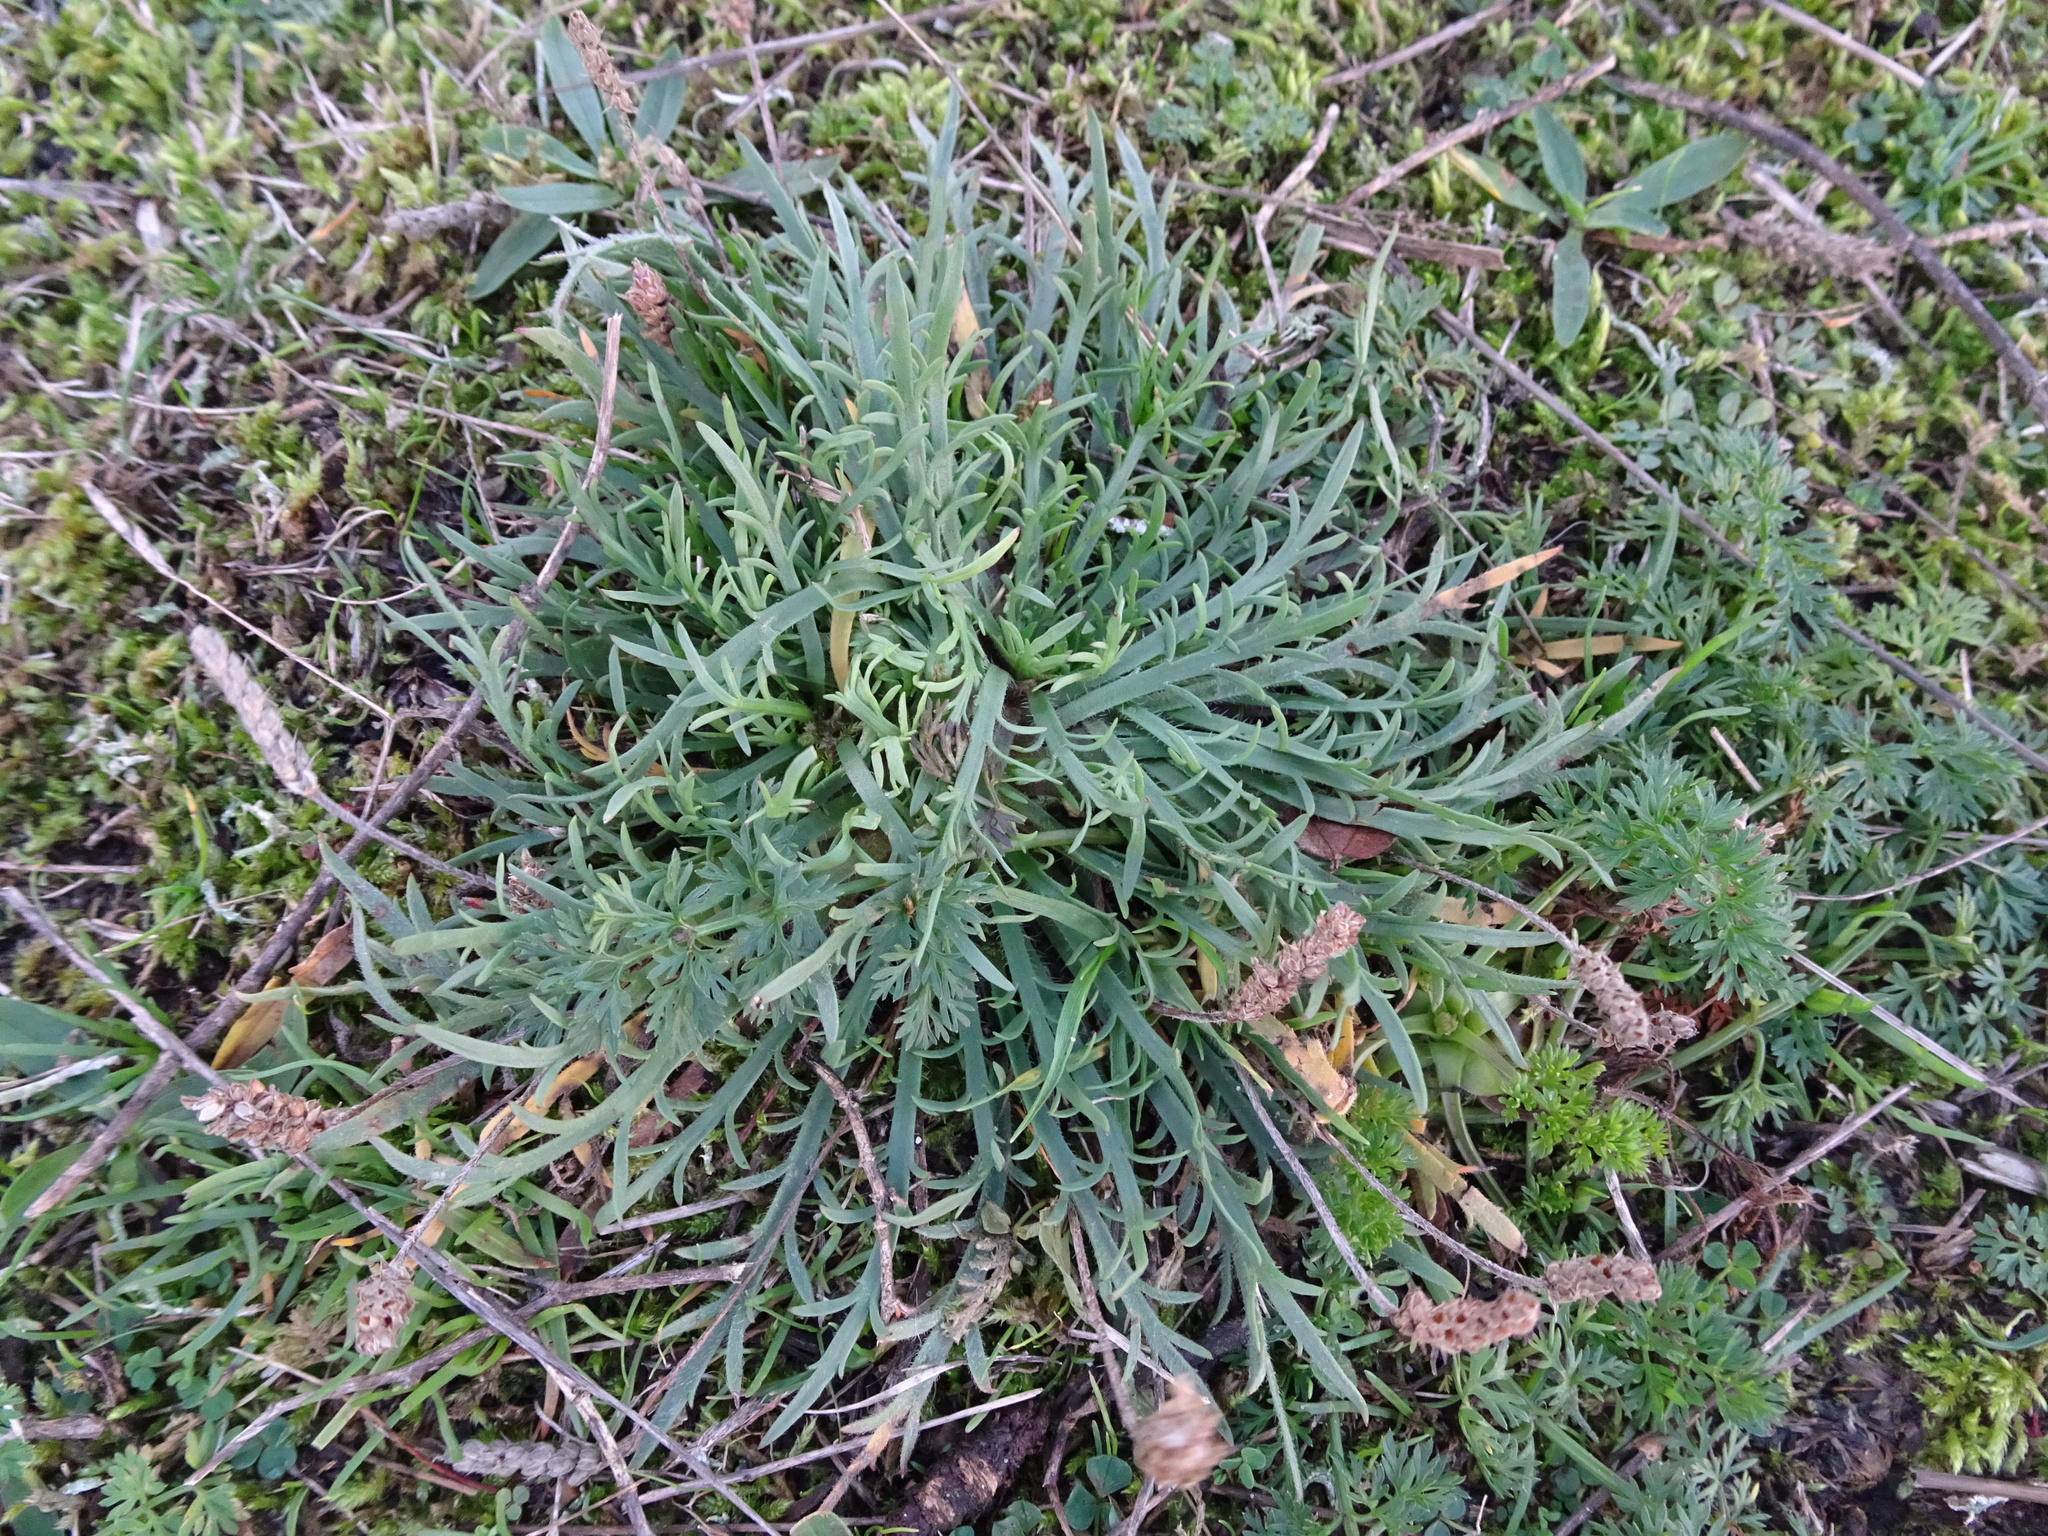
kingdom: Plantae
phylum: Tracheophyta
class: Magnoliopsida
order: Lamiales
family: Plantaginaceae
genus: Plantago
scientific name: Plantago coronopus
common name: Buck's-horn plantain
